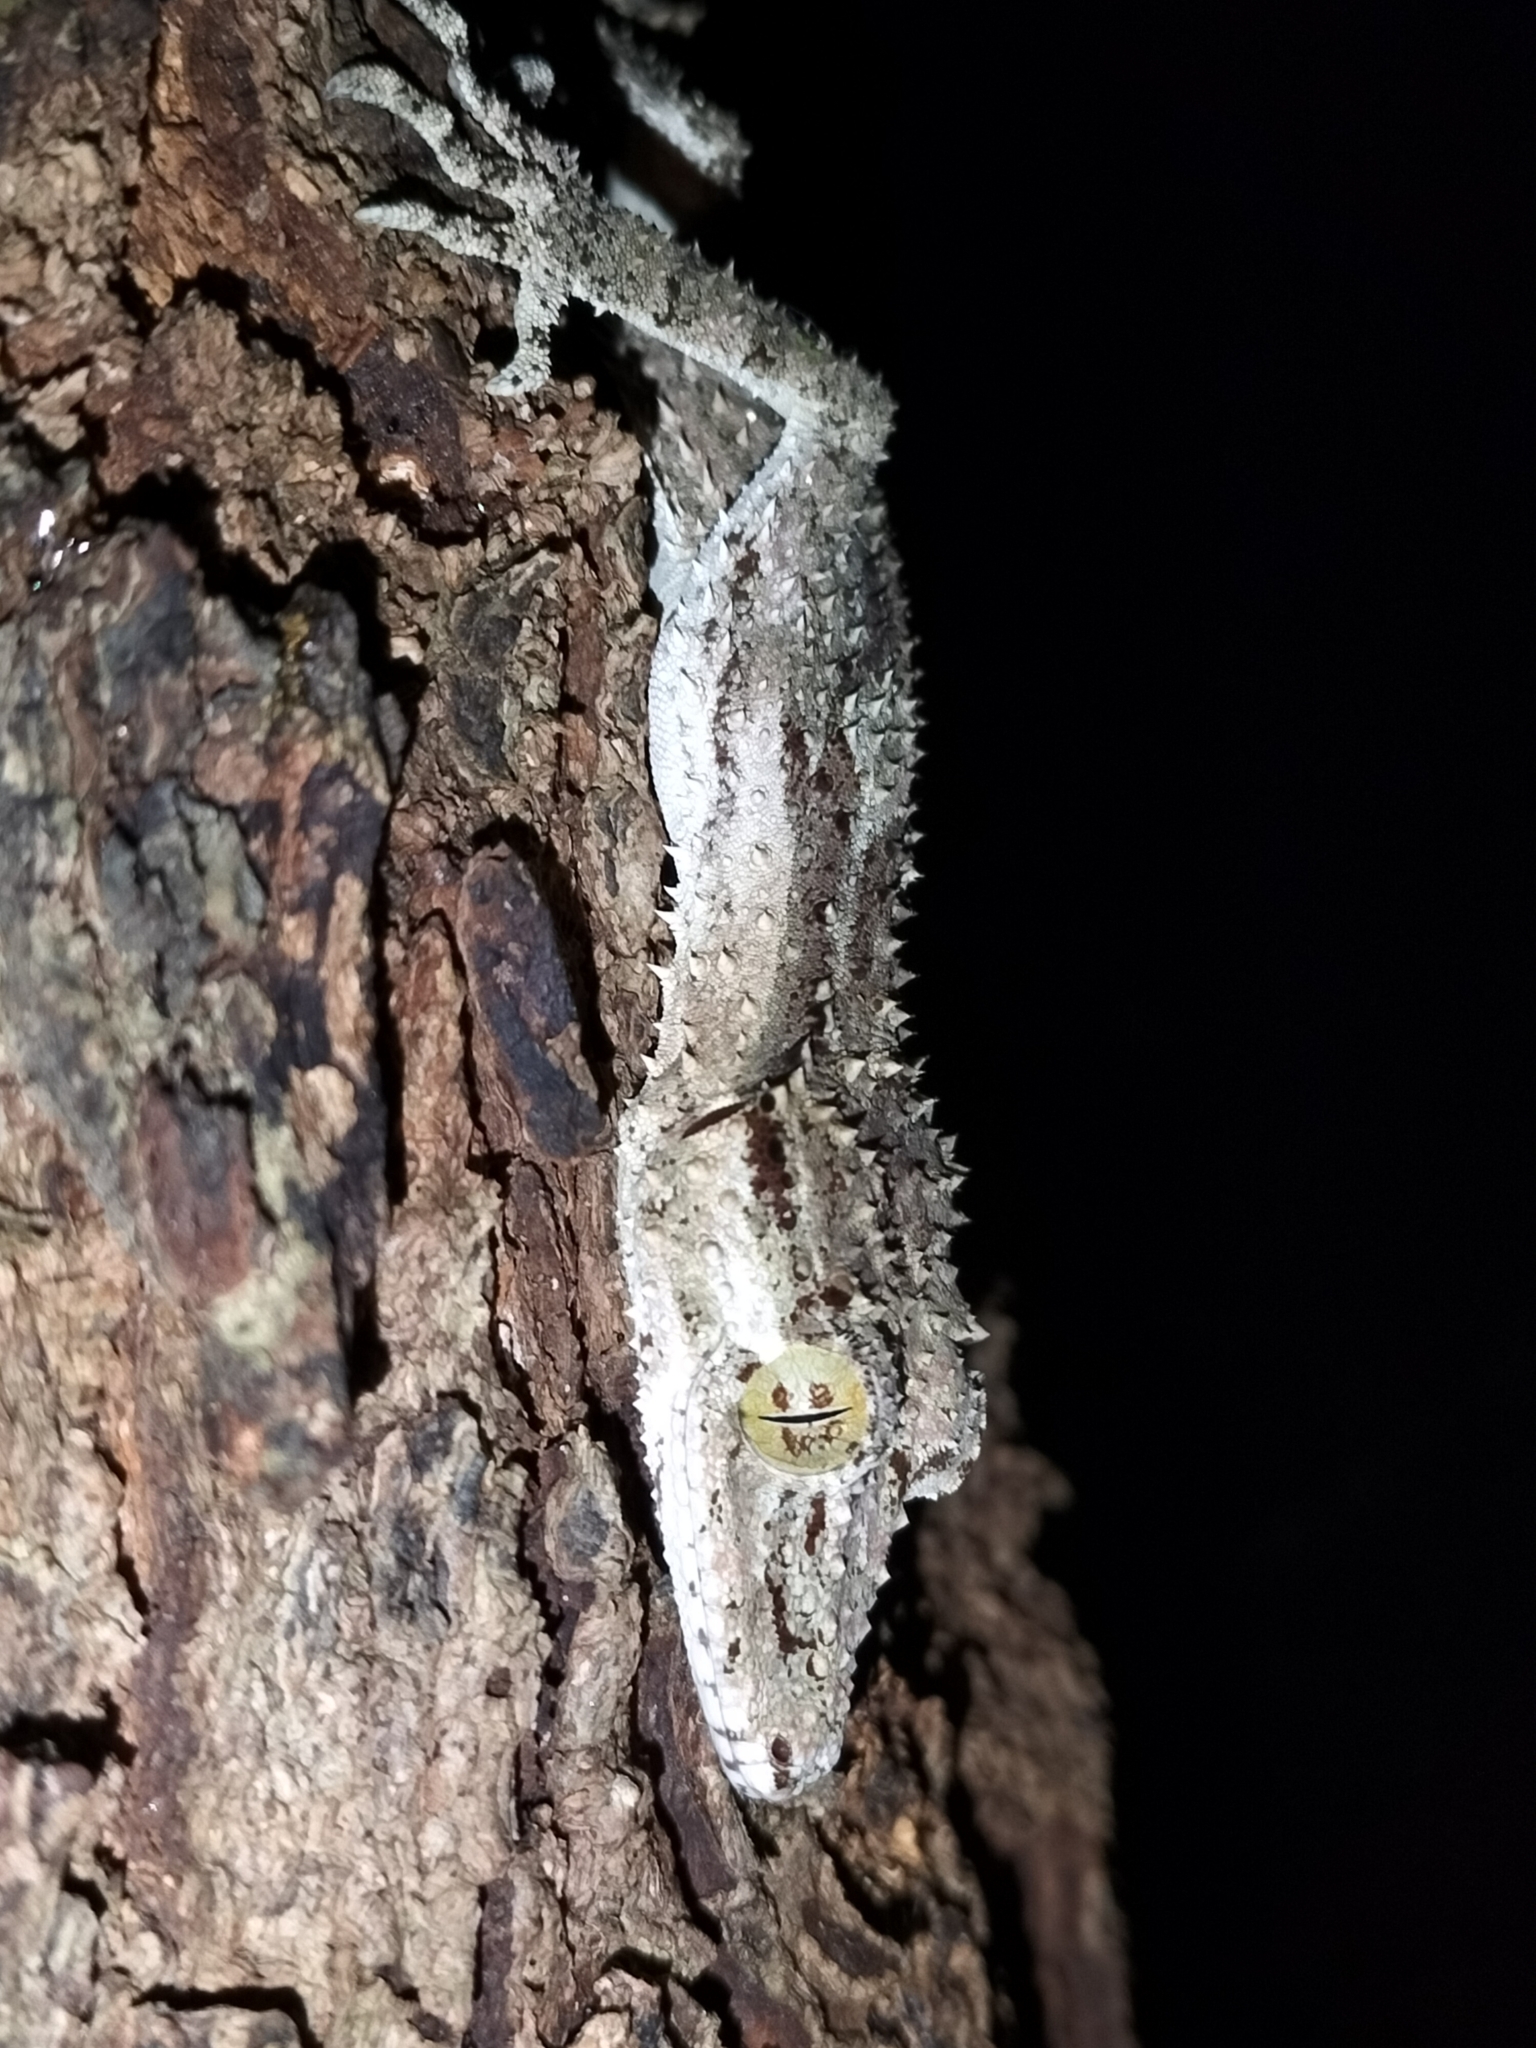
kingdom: Animalia
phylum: Chordata
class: Squamata
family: Carphodactylidae
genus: Saltuarius
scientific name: Saltuarius cornutus
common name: Leaf-tailed gecko
